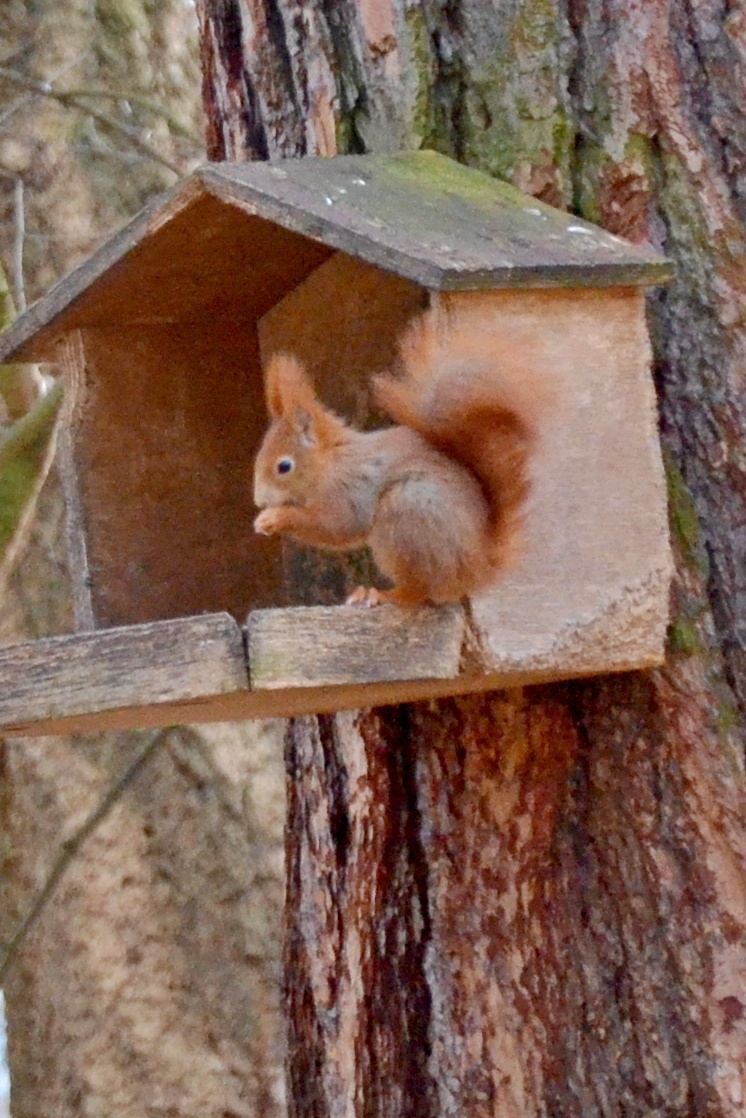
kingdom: Animalia
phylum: Chordata
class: Mammalia
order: Rodentia
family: Sciuridae
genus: Sciurus
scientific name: Sciurus vulgaris
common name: Eurasian red squirrel
